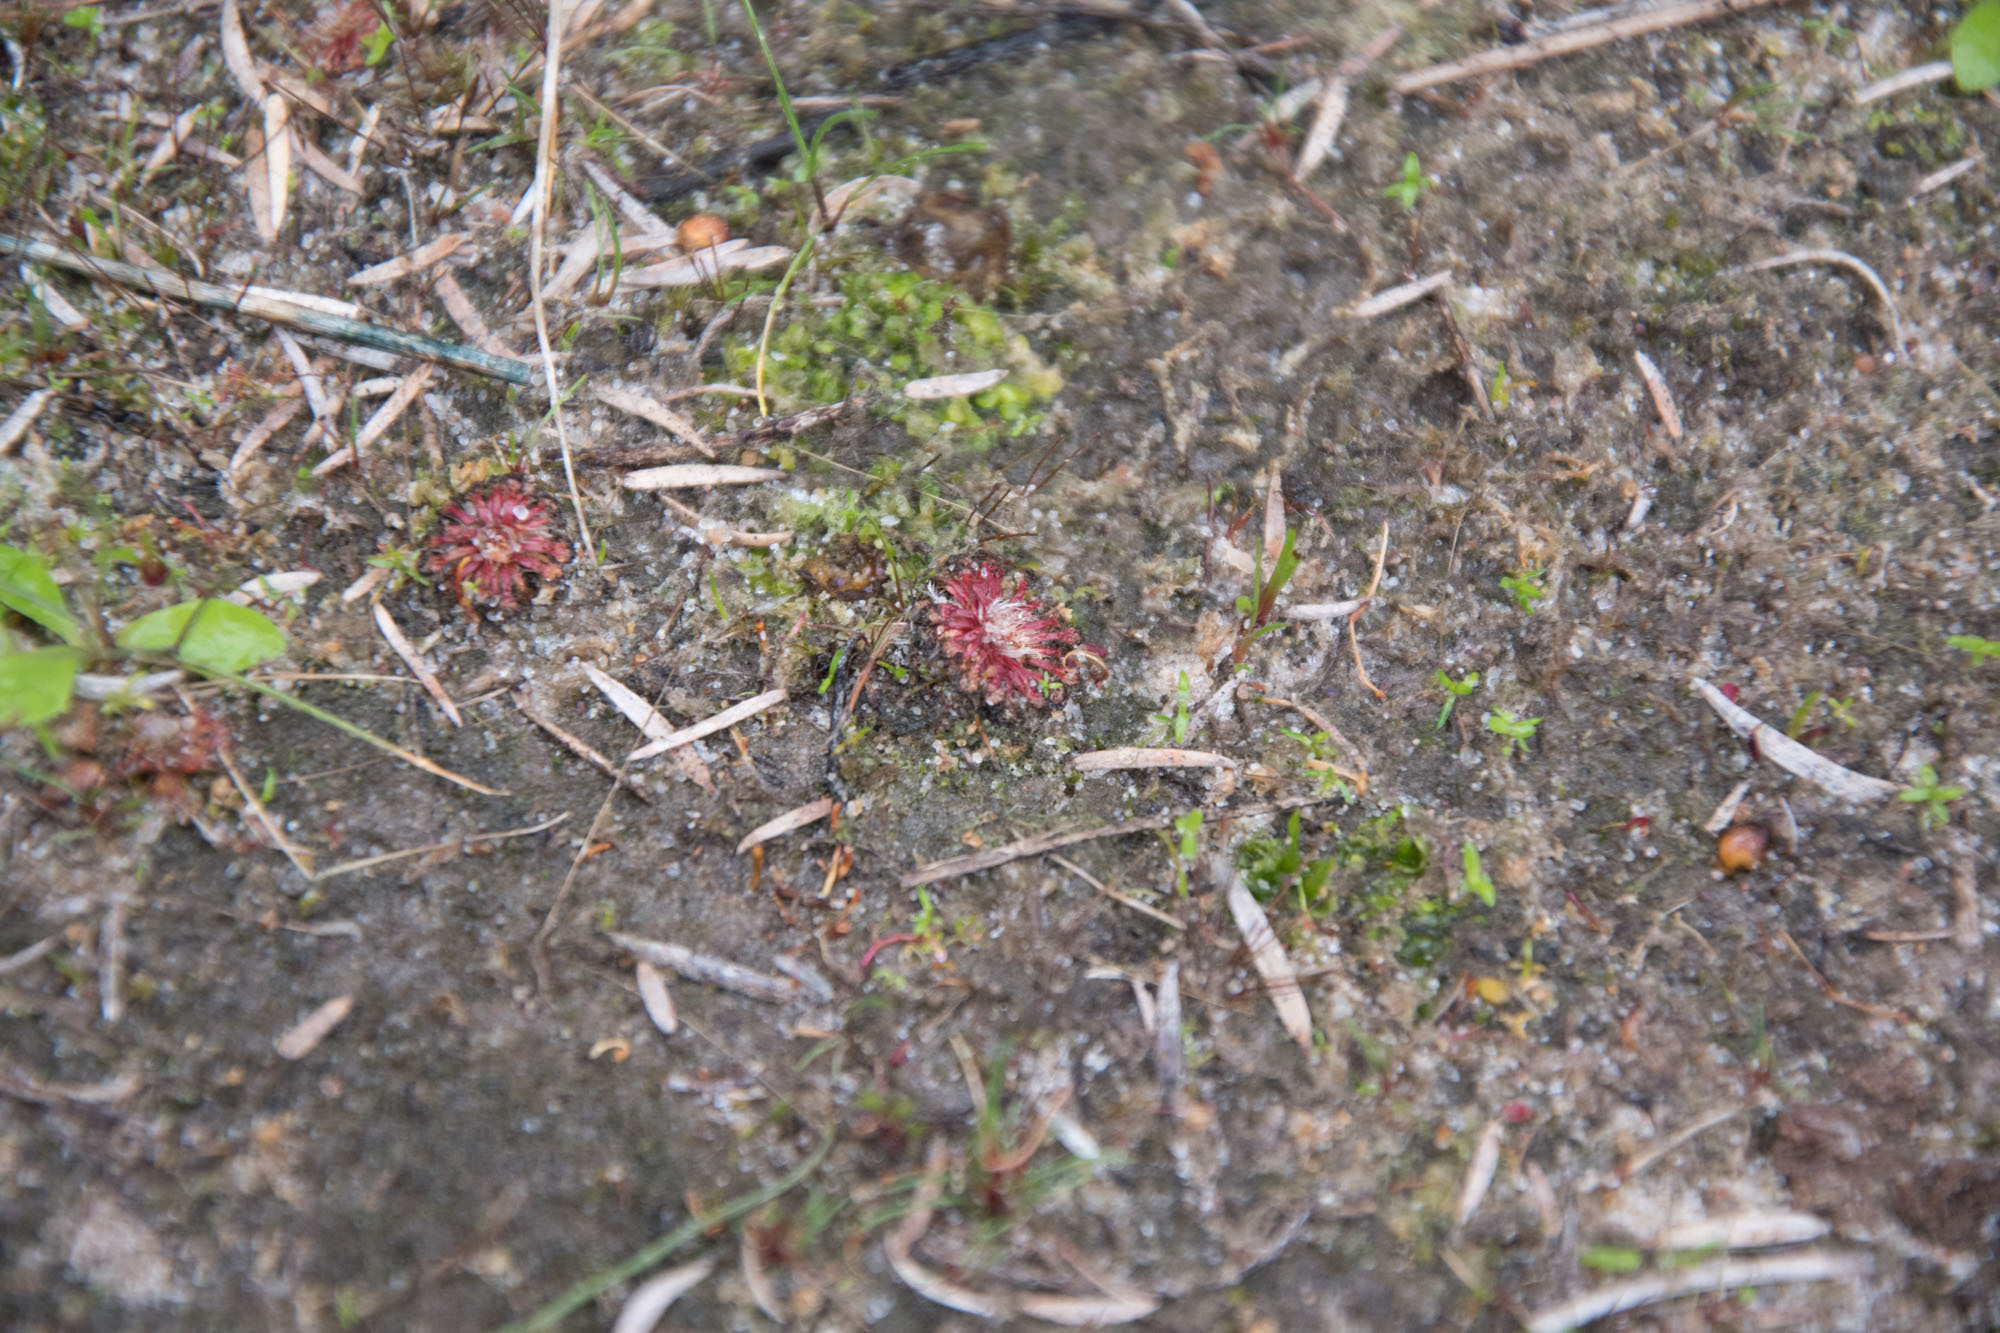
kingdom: Plantae
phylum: Tracheophyta
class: Magnoliopsida
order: Caryophyllales
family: Droseraceae
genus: Drosera
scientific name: Drosera nitidula
